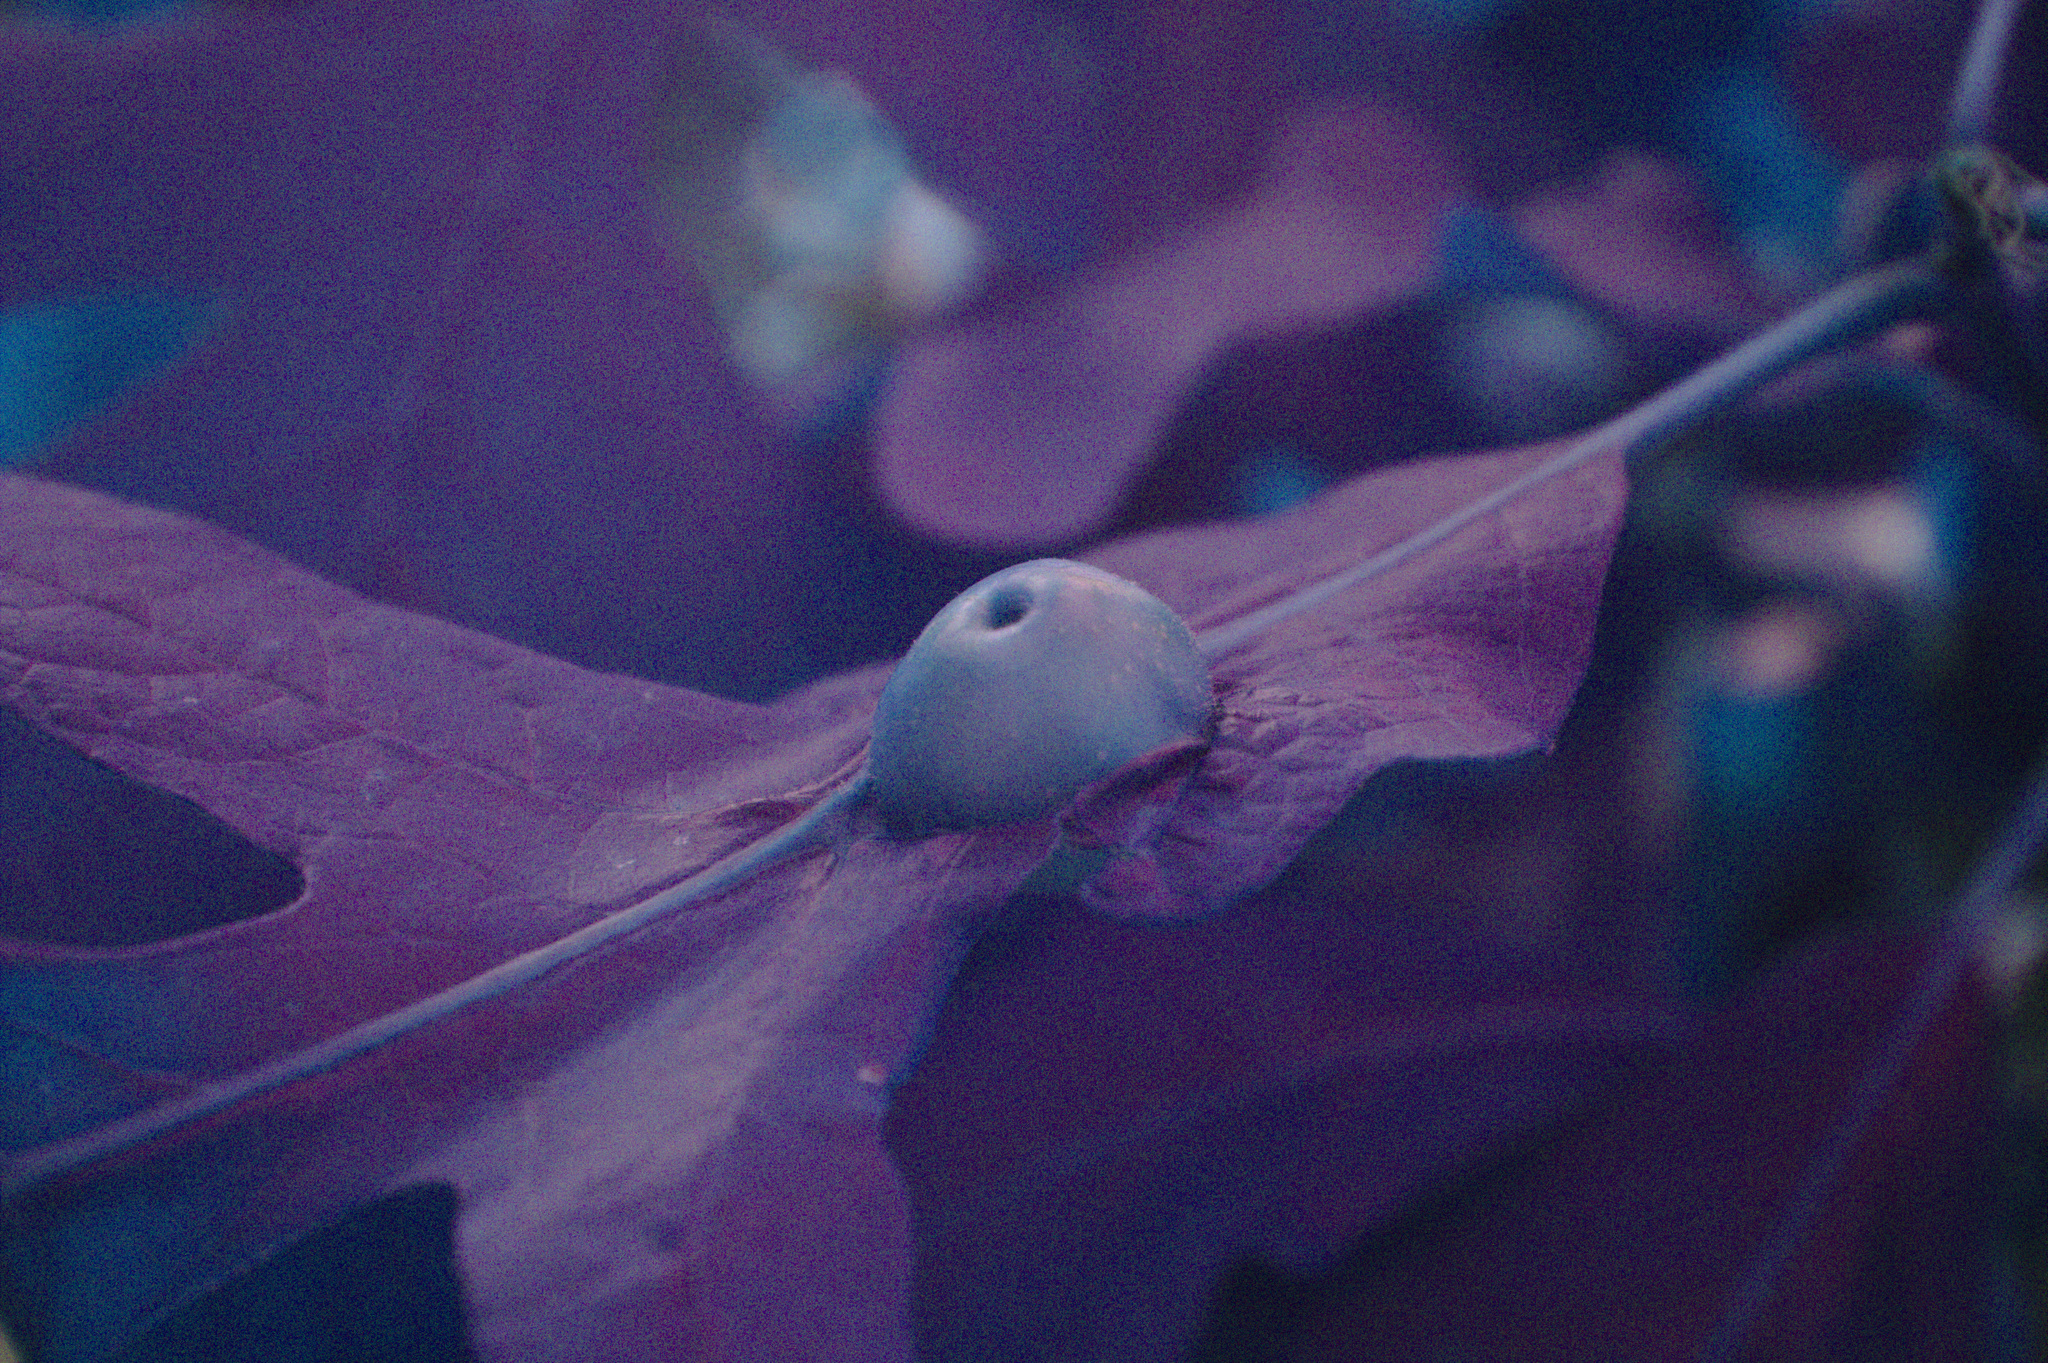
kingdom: Animalia
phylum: Arthropoda
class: Insecta
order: Hymenoptera
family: Cynipidae
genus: Andricus
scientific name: Andricus
